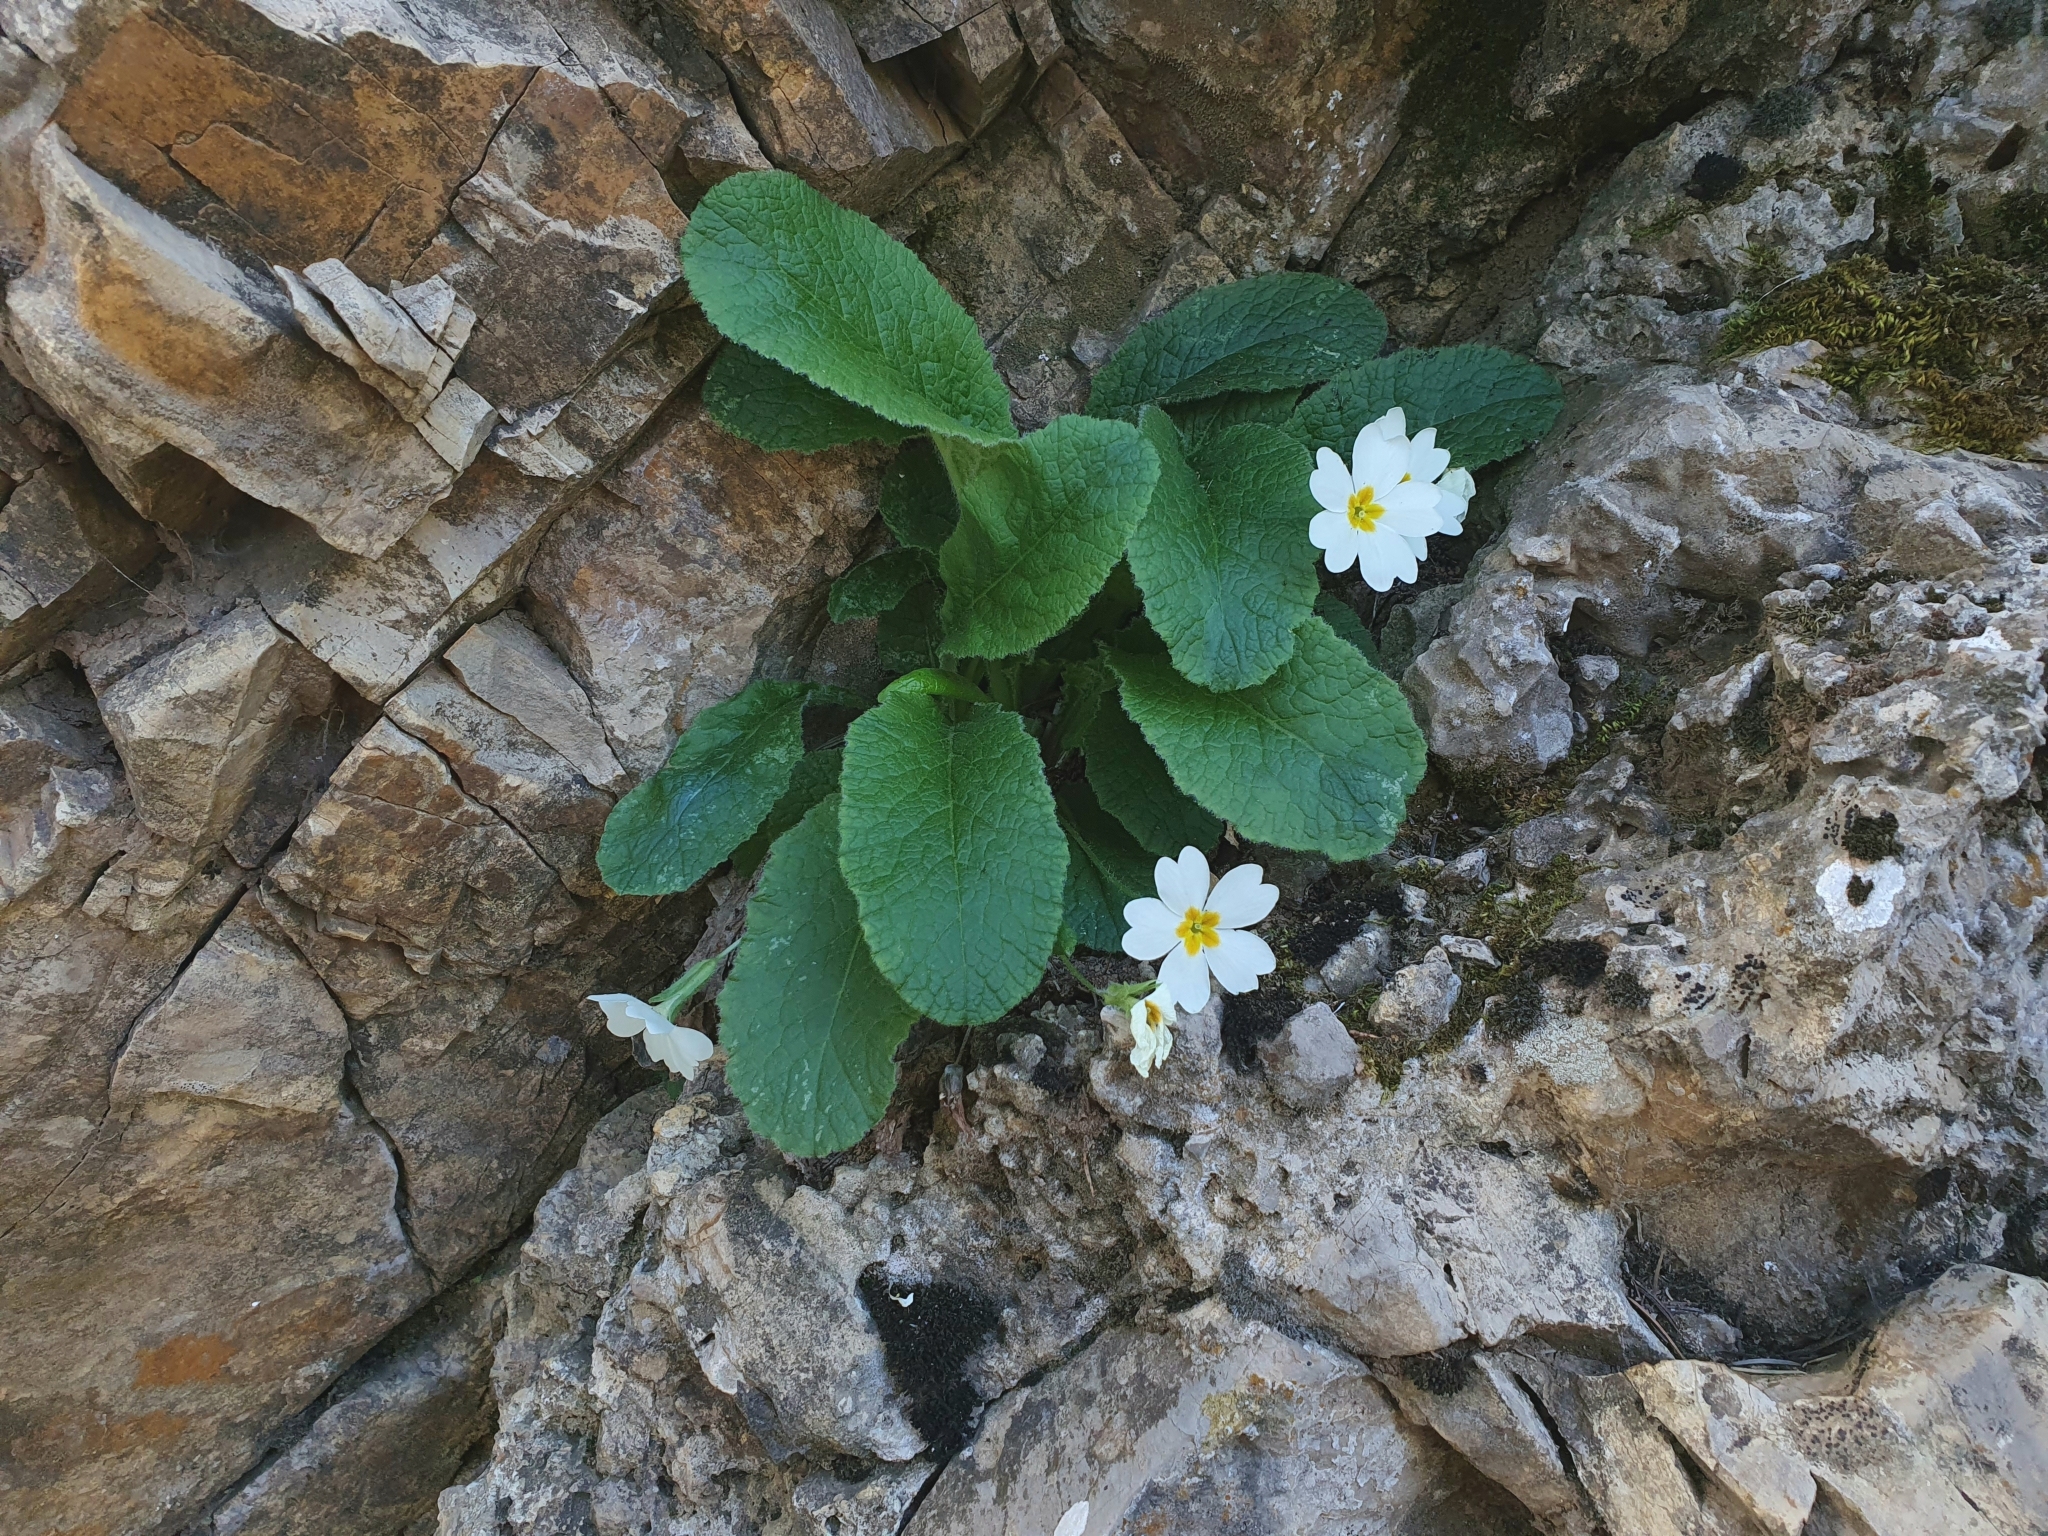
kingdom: Plantae
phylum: Tracheophyta
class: Magnoliopsida
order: Ericales
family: Primulaceae
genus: Primula
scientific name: Primula vulgaris
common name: Primrose
